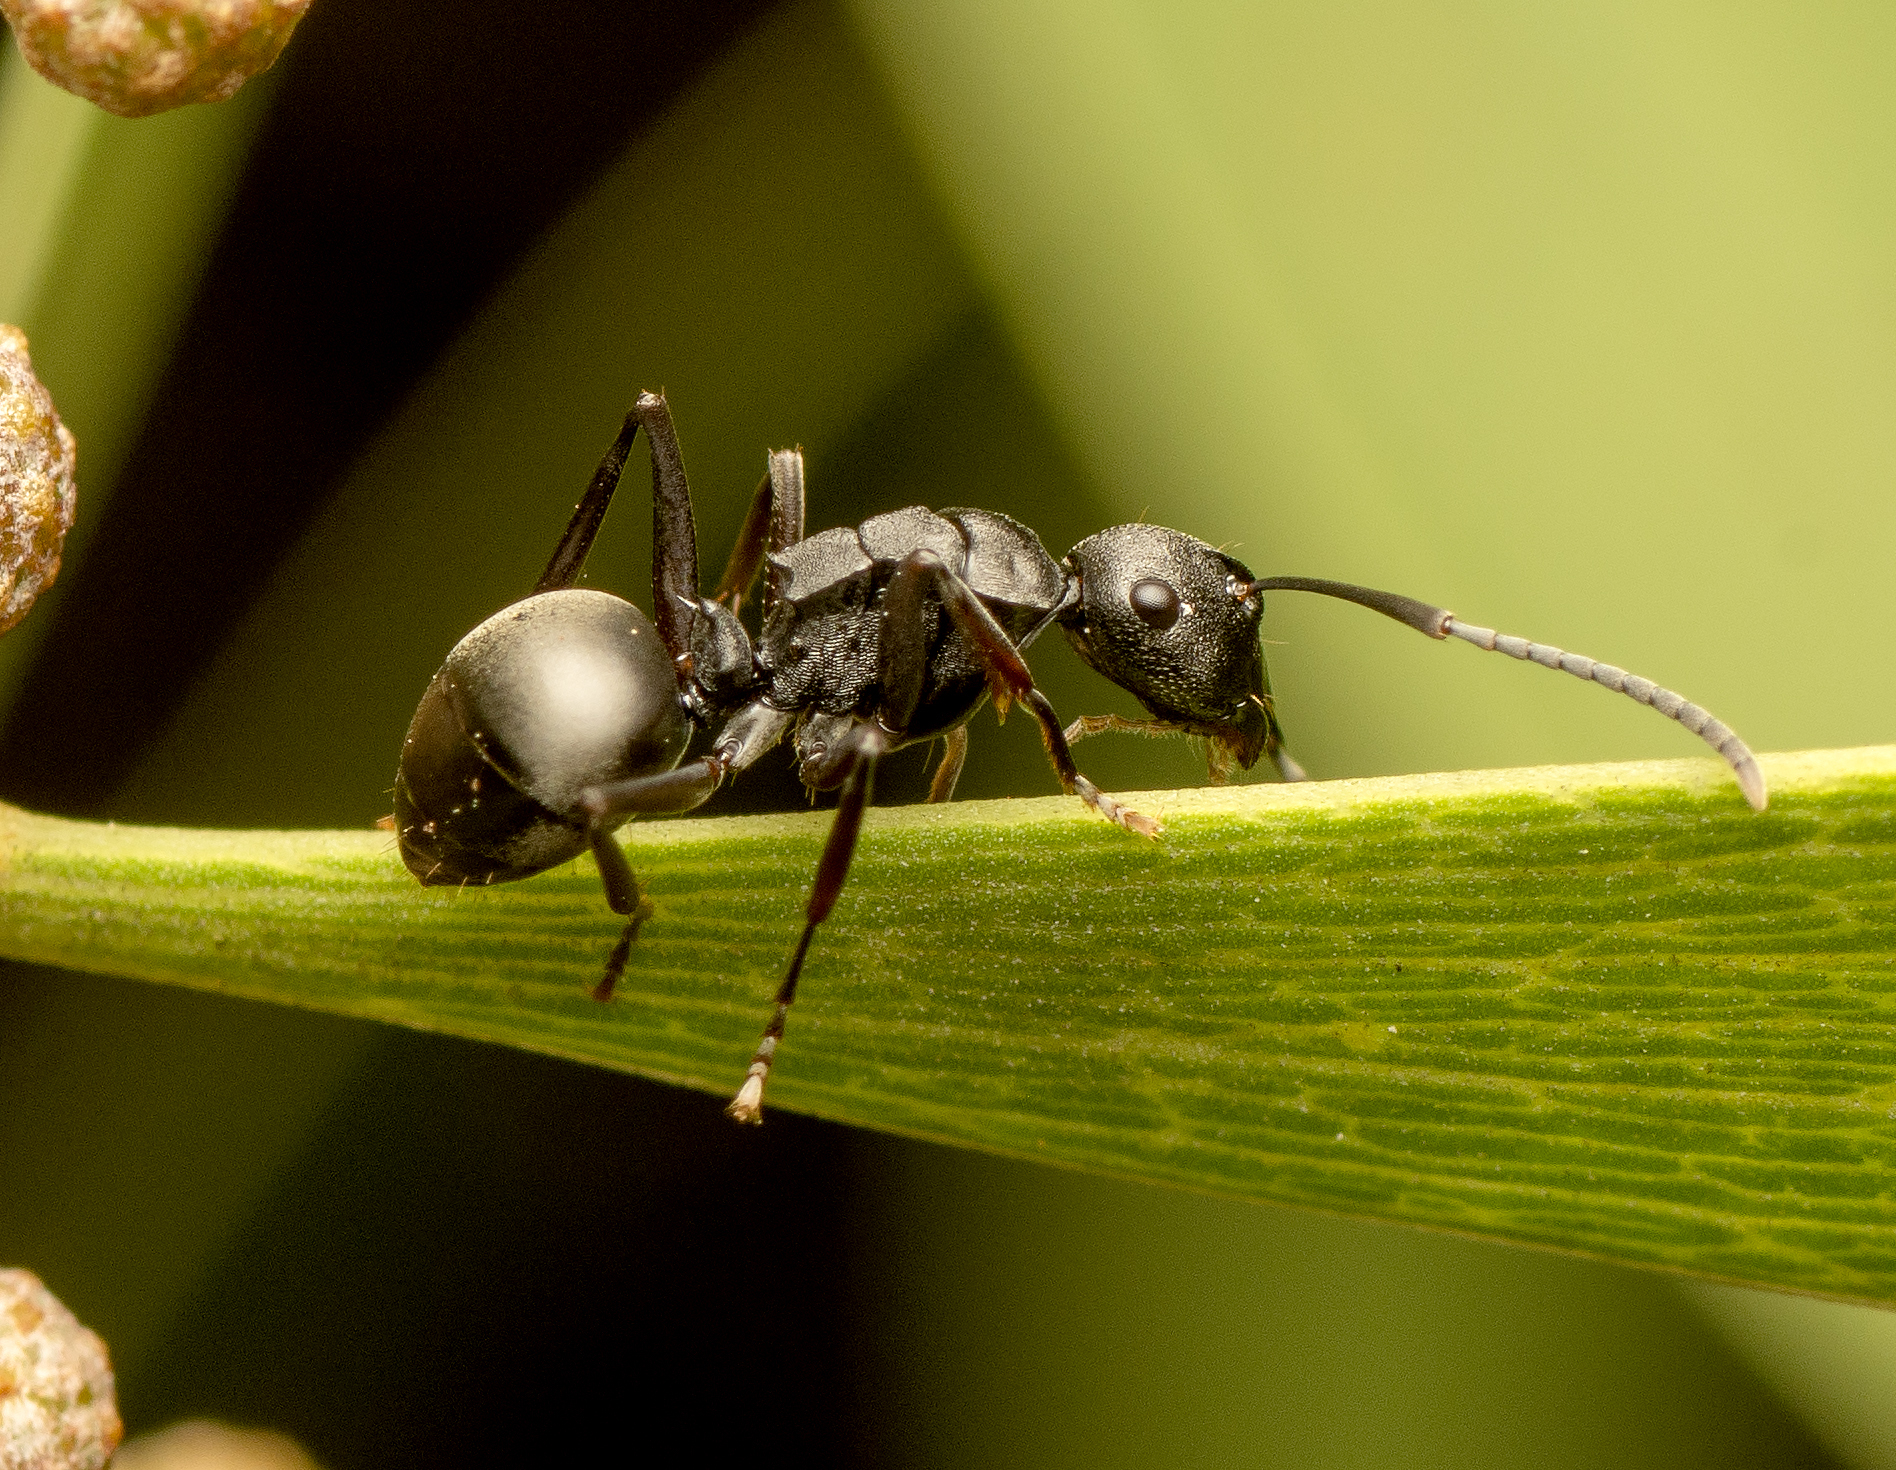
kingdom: Animalia
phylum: Arthropoda
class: Insecta
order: Hymenoptera
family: Formicidae
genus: Polyrhachis
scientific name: Polyrhachis phryne
